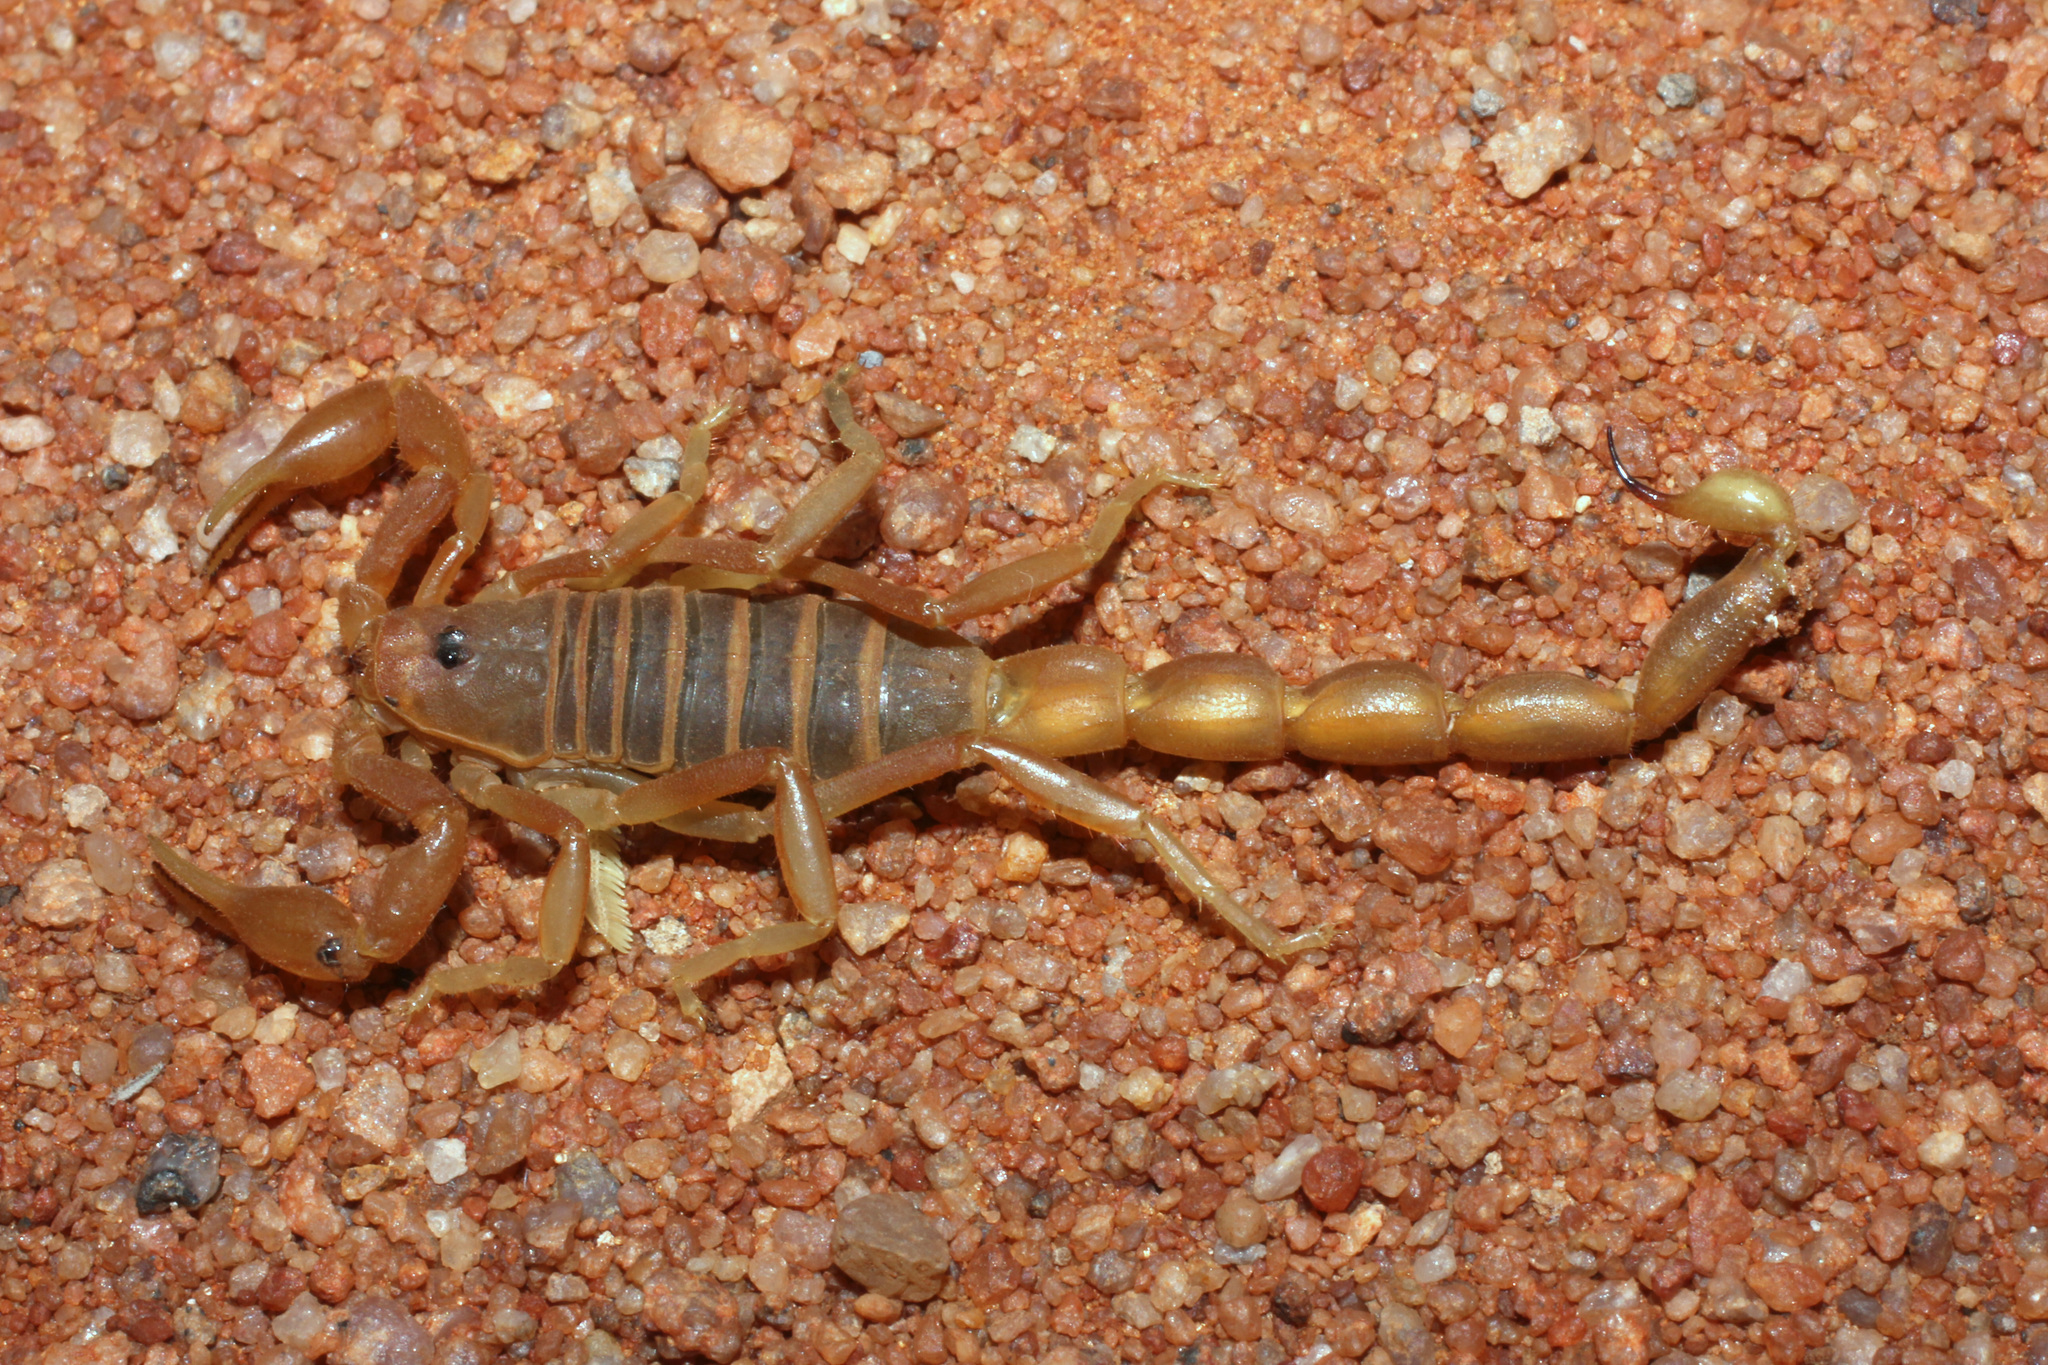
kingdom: Animalia
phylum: Arthropoda
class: Arachnida
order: Scorpiones
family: Buthidae
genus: Parabuthus
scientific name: Parabuthus kuanyamarum
